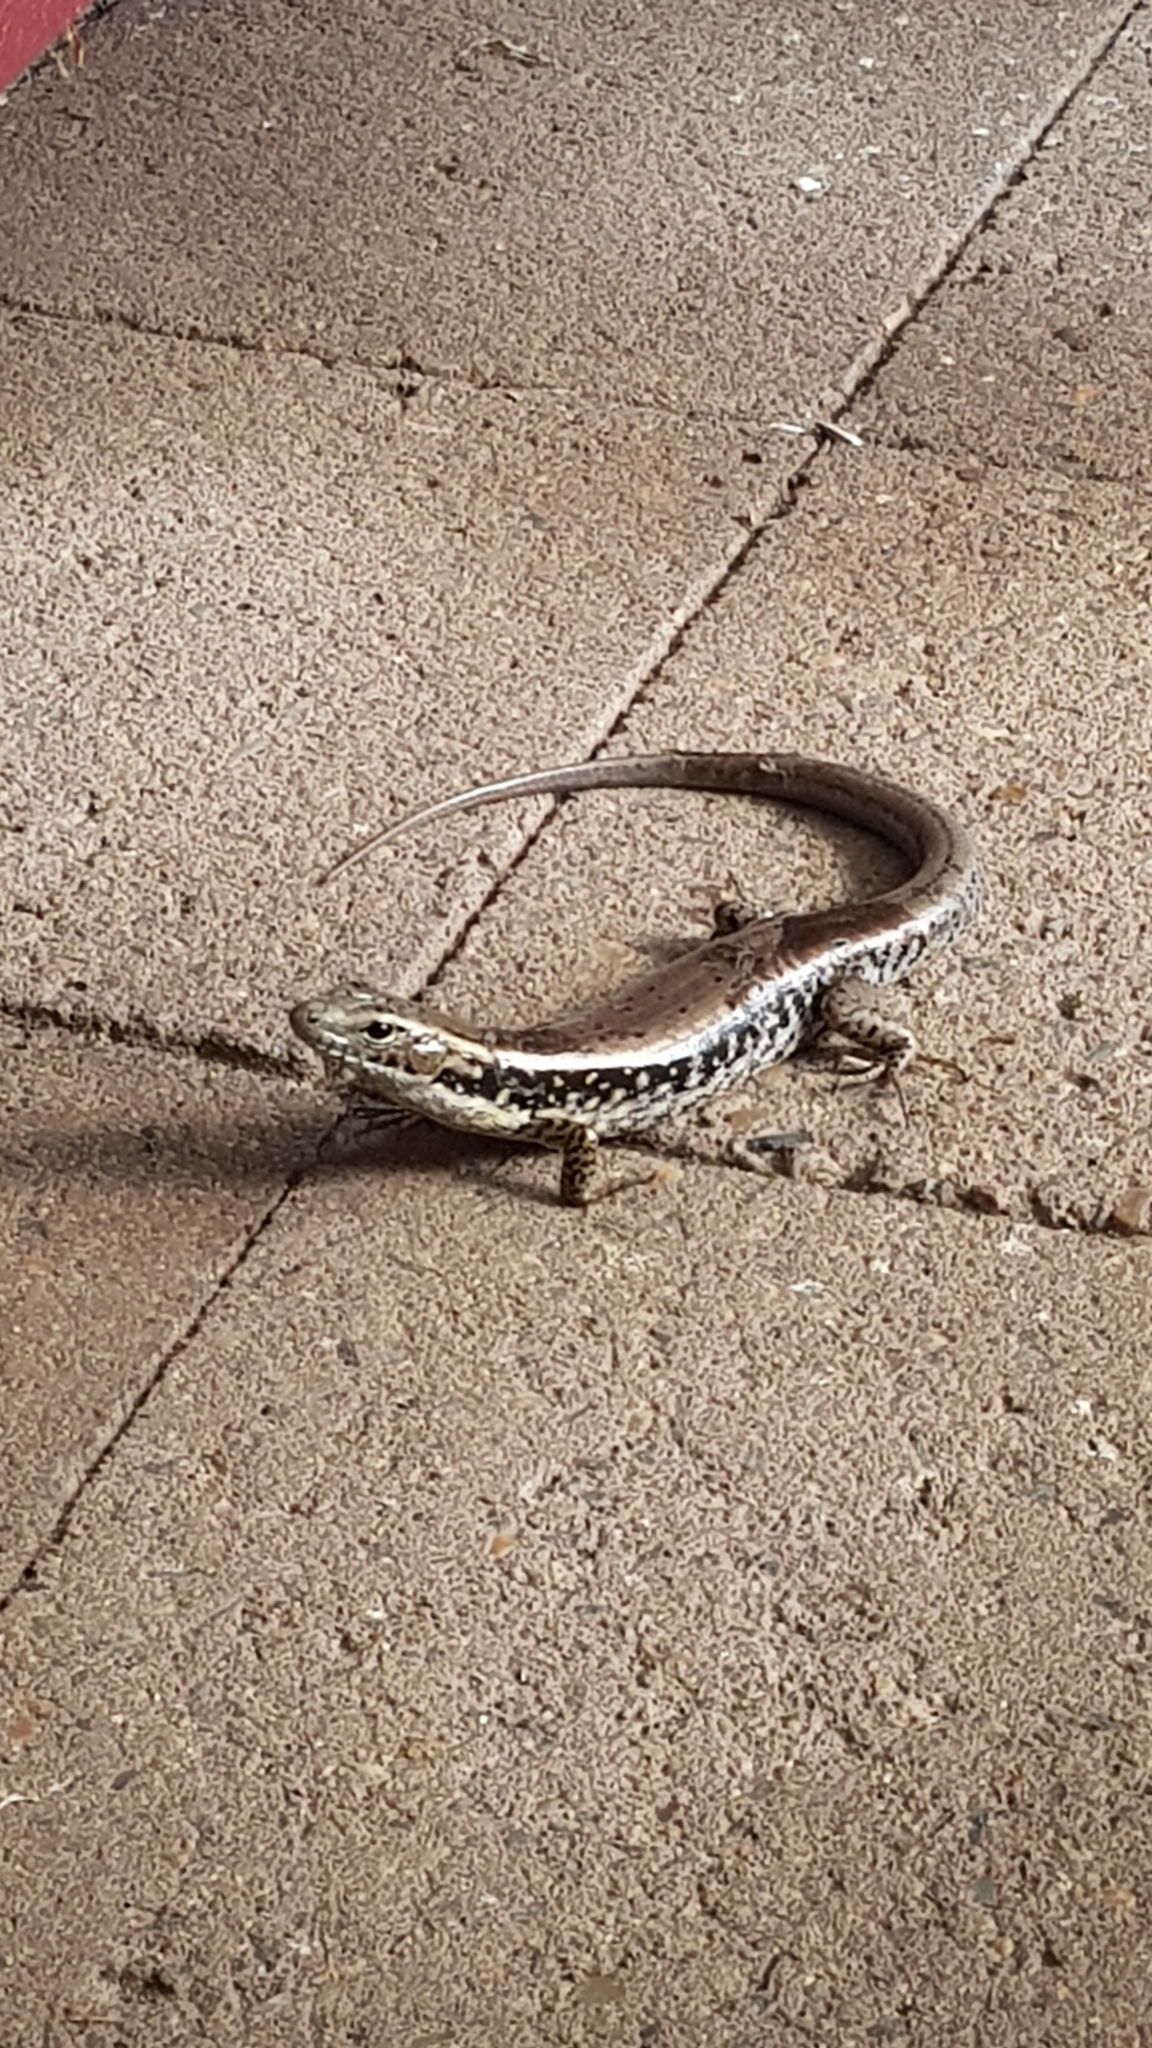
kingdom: Animalia
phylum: Chordata
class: Squamata
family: Scincidae
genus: Eulamprus
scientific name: Eulamprus quoyii
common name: Eastern water skink
